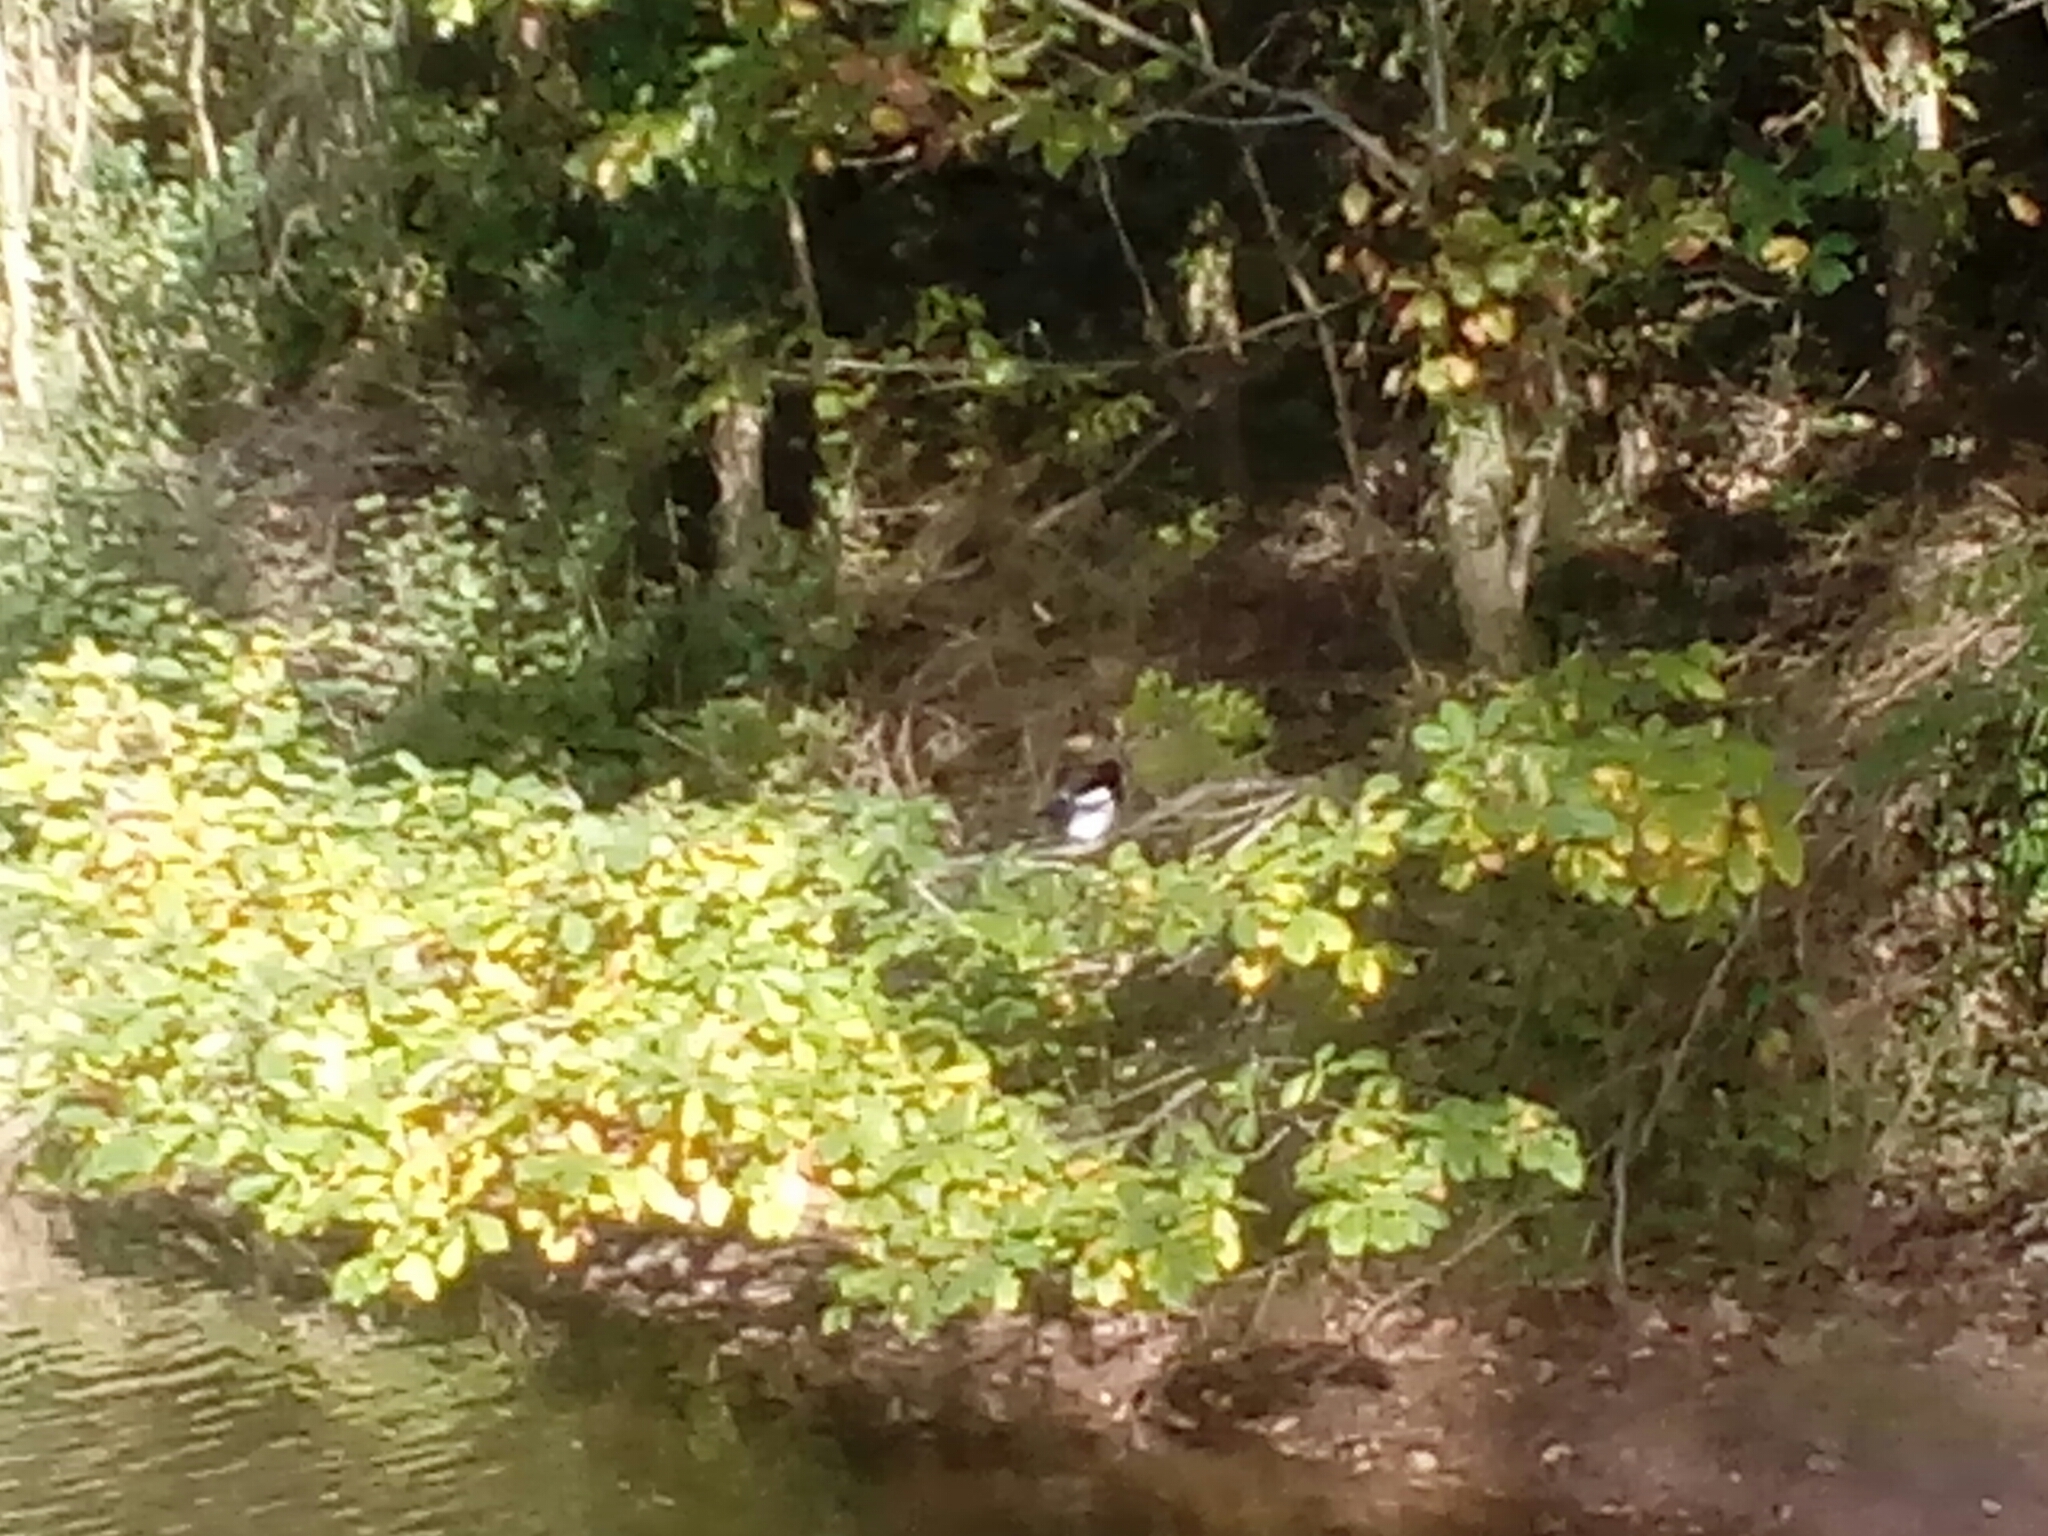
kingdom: Animalia
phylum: Chordata
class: Aves
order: Passeriformes
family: Corvidae
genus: Pica
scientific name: Pica pica
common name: Eurasian magpie
